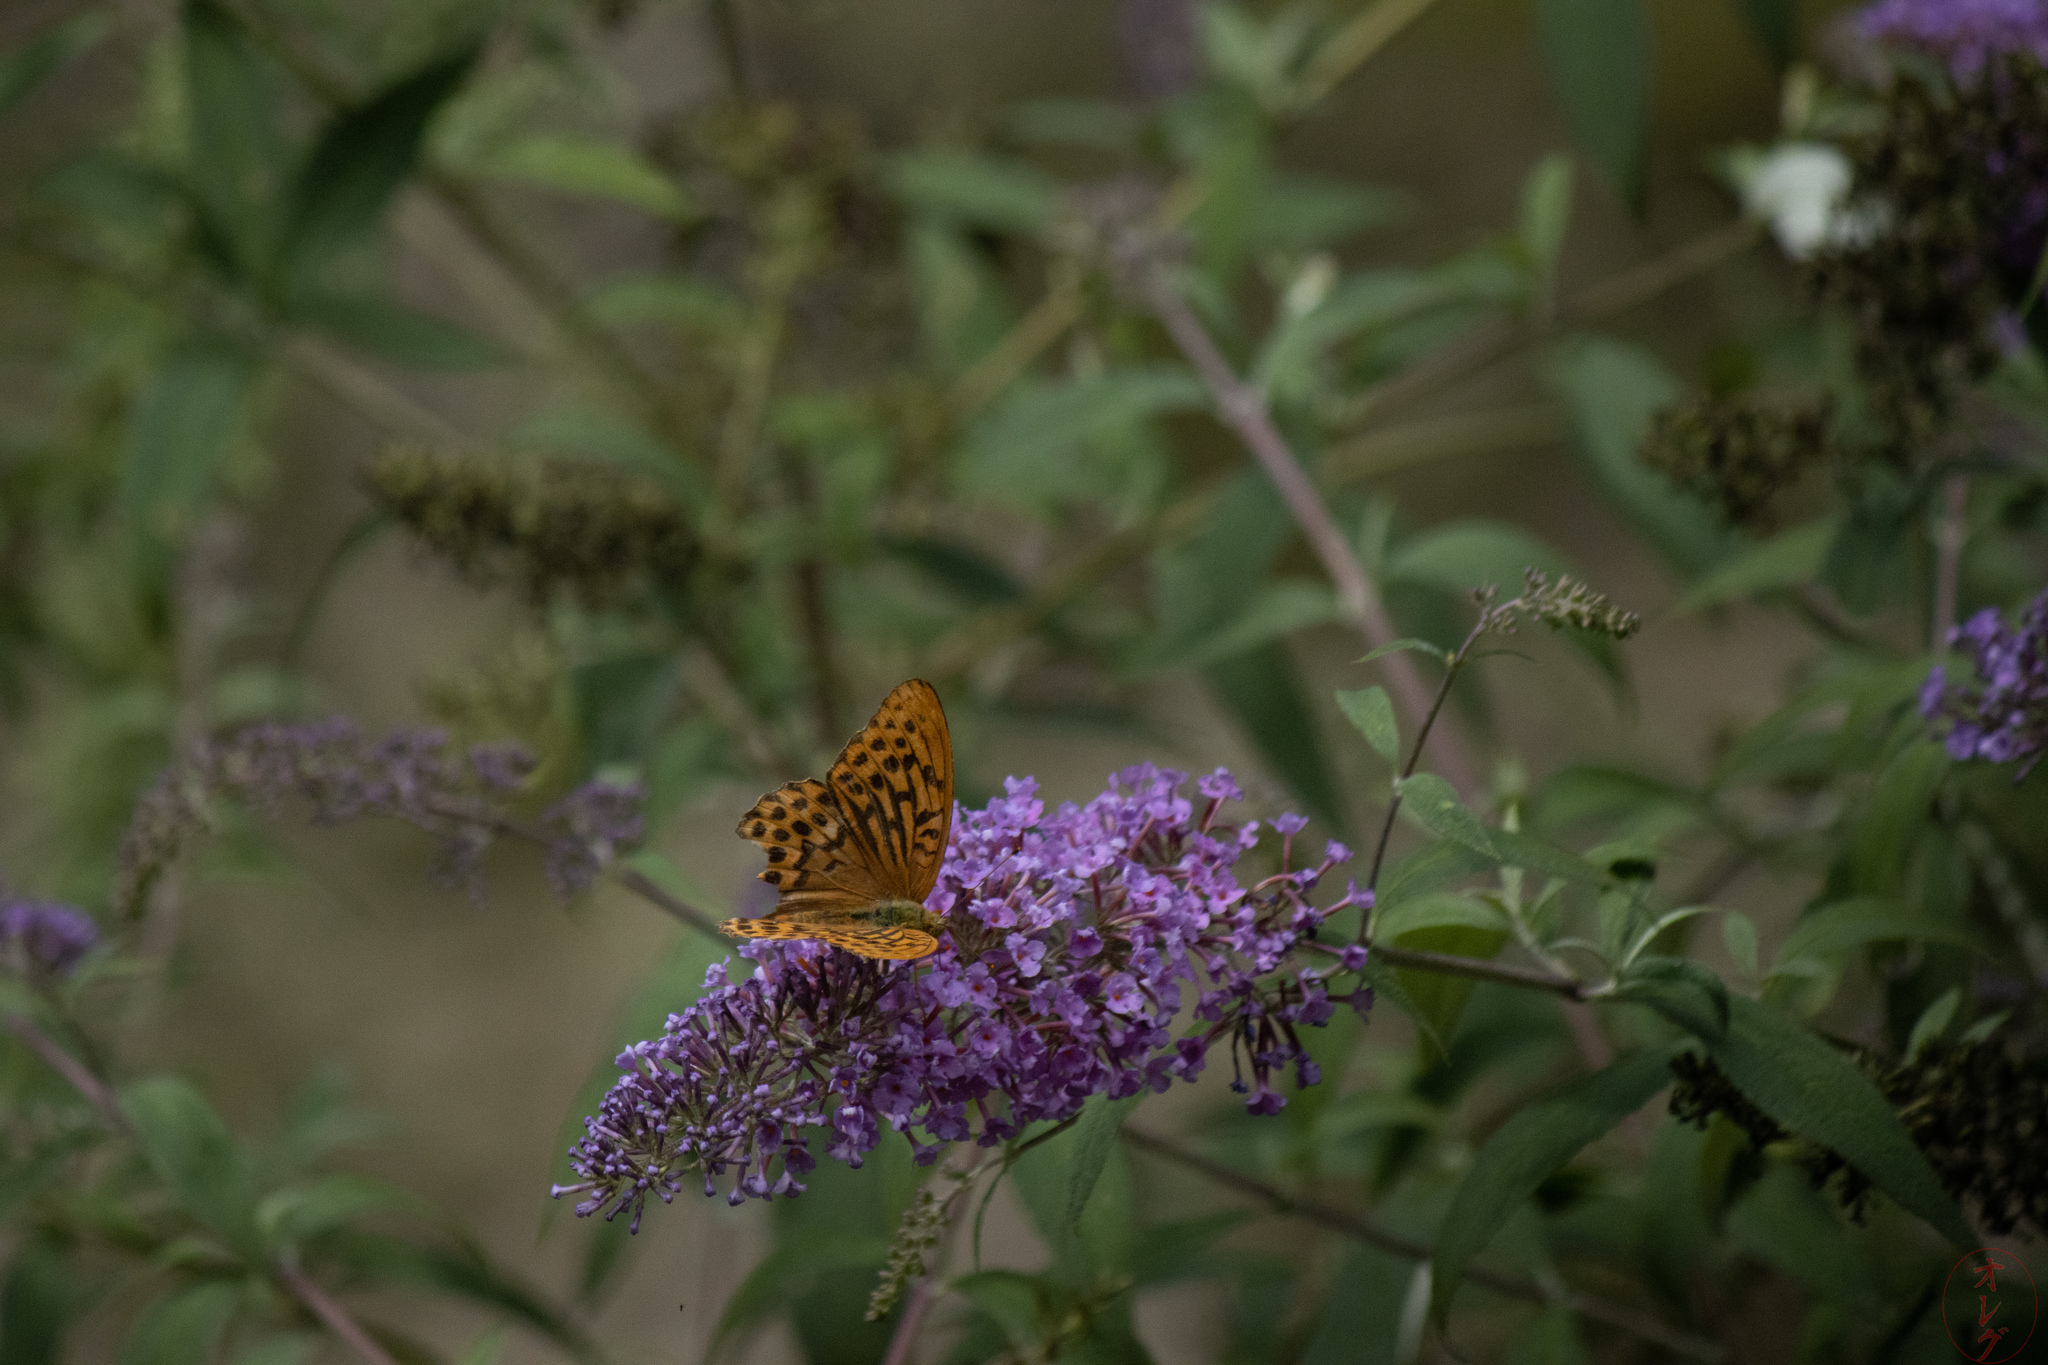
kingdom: Animalia
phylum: Arthropoda
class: Insecta
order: Lepidoptera
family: Nymphalidae
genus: Argynnis
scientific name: Argynnis paphia
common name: Silver-washed fritillary
